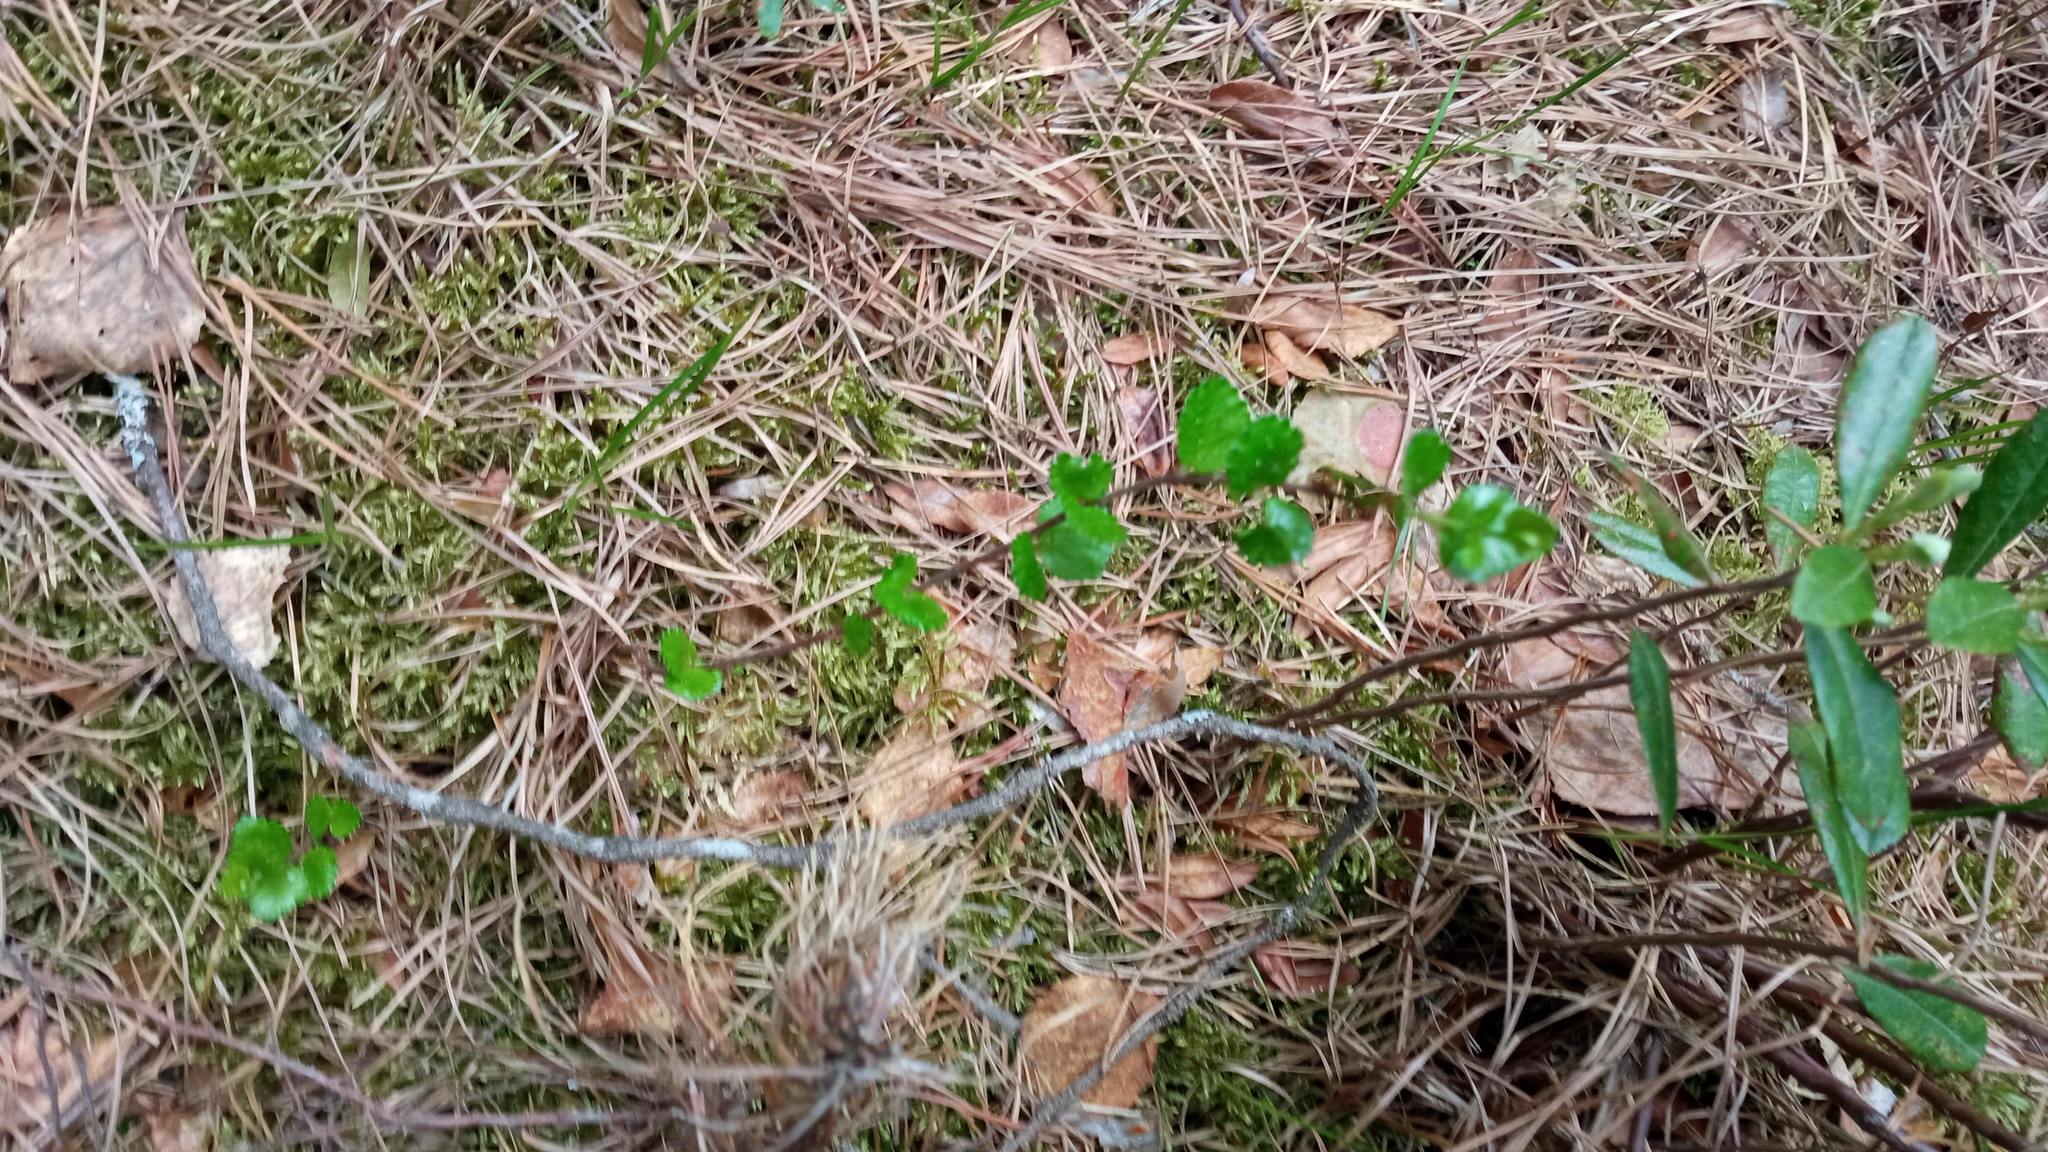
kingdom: Plantae
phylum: Tracheophyta
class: Magnoliopsida
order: Fagales
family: Betulaceae
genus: Betula
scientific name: Betula nana
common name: Arctic dwarf birch
